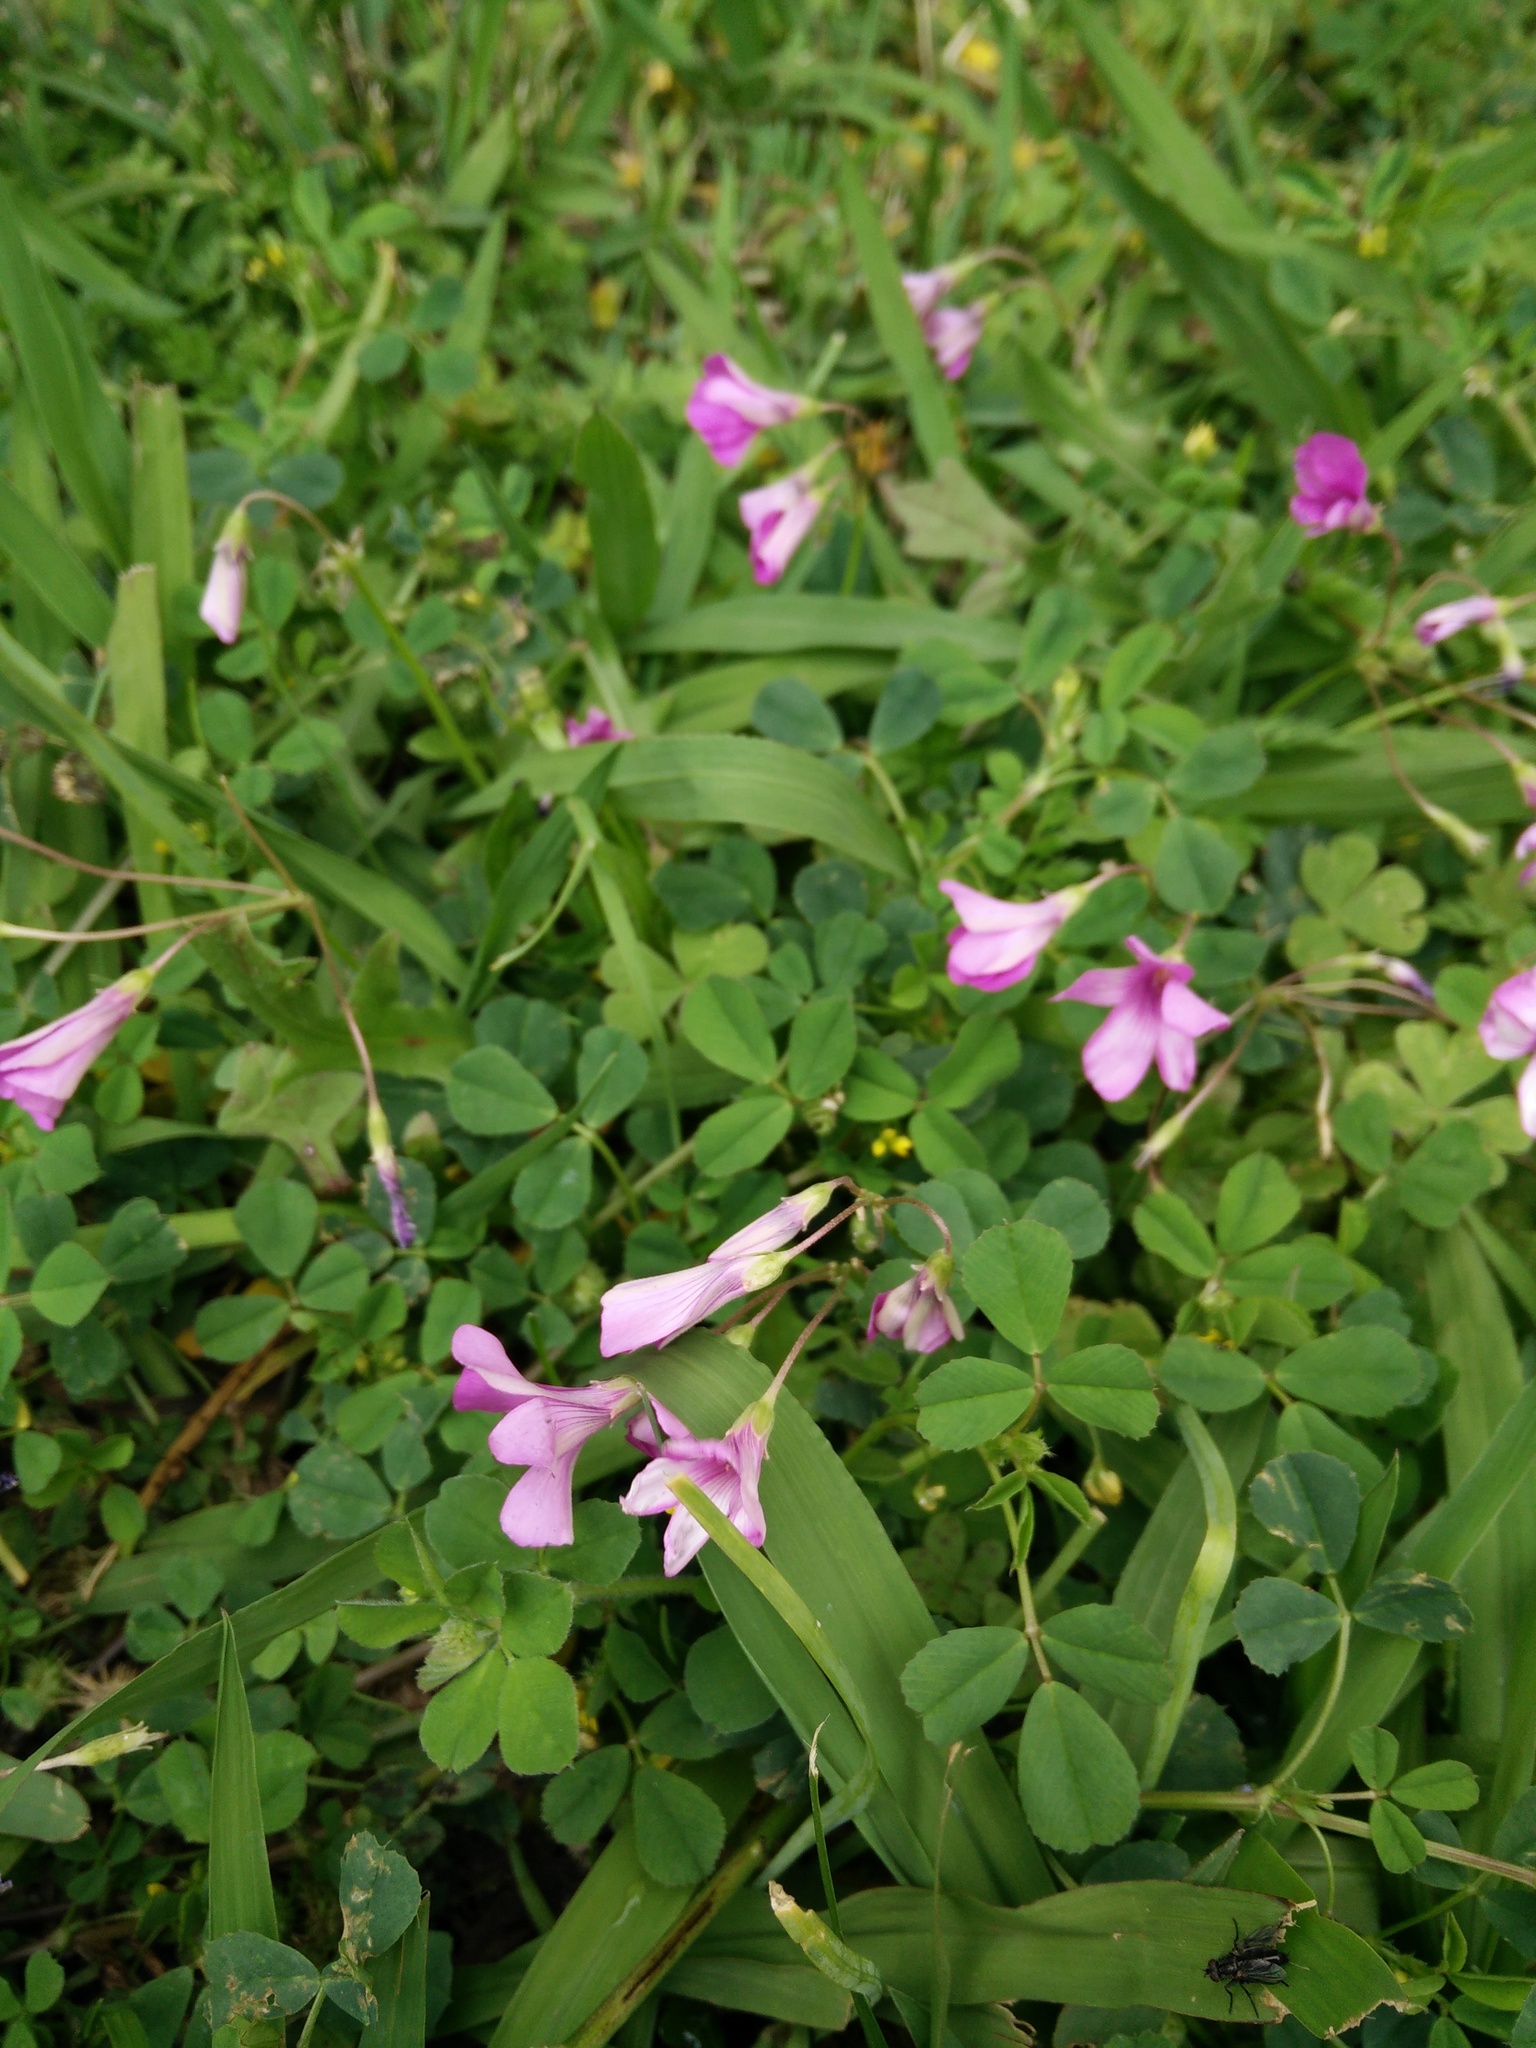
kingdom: Plantae
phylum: Tracheophyta
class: Magnoliopsida
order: Oxalidales
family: Oxalidaceae
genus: Oxalis
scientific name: Oxalis articulata
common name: Pink-sorrel
